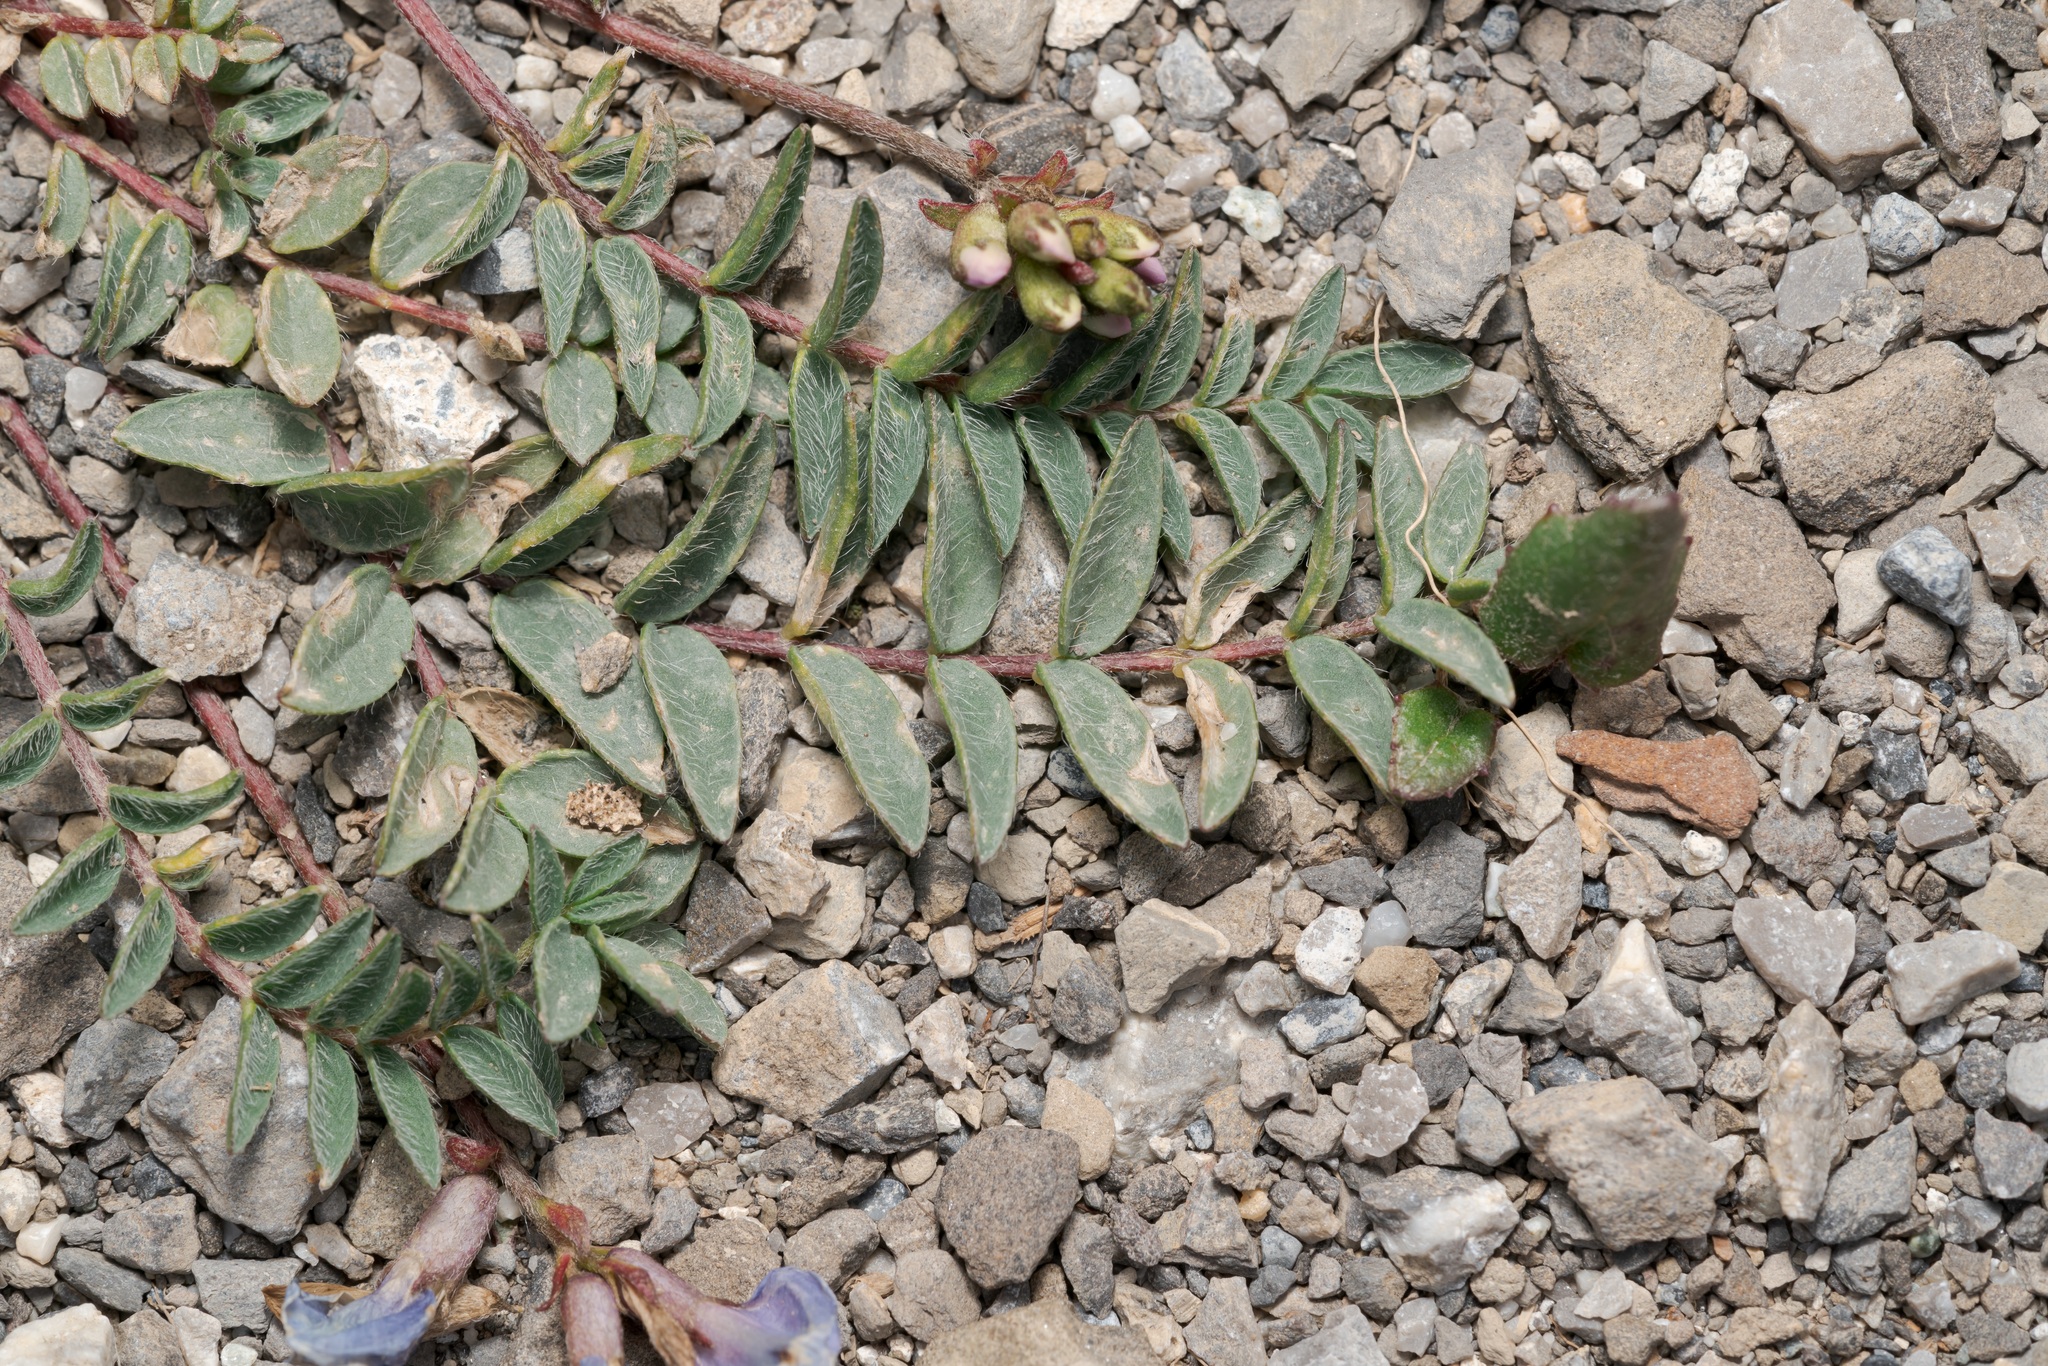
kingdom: Plantae
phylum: Tracheophyta
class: Magnoliopsida
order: Fabales
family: Fabaceae
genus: Oxytropis
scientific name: Oxytropis montana
